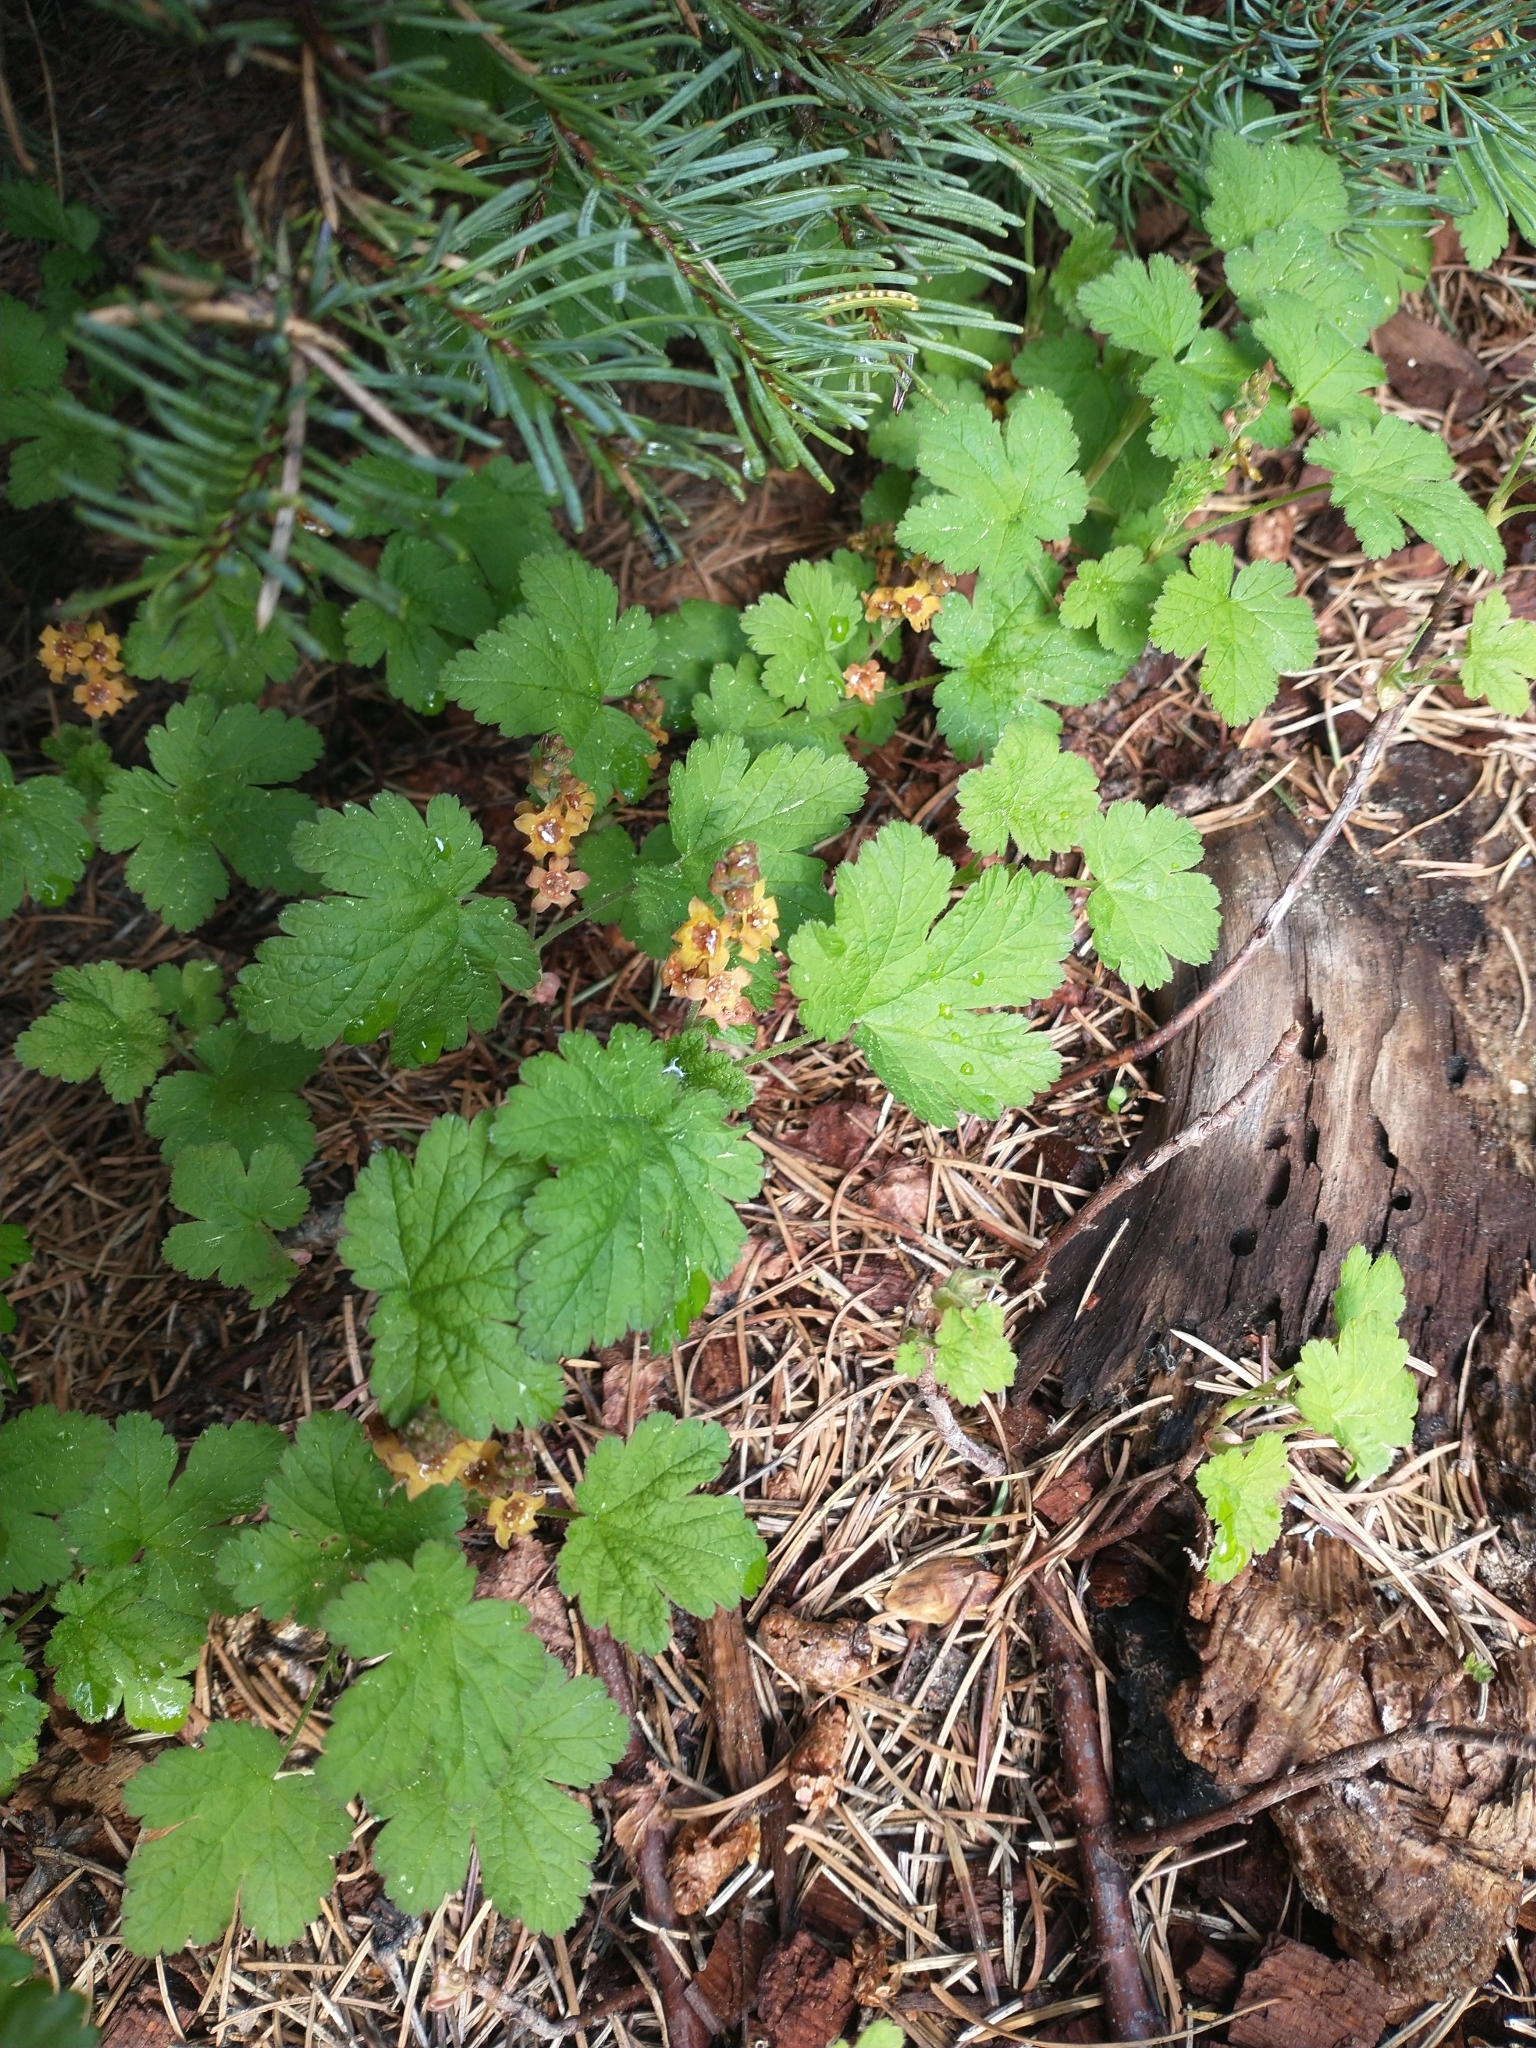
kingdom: Plantae
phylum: Tracheophyta
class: Magnoliopsida
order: Saxifragales
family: Grossulariaceae
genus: Ribes
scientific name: Ribes erythrocarpum
